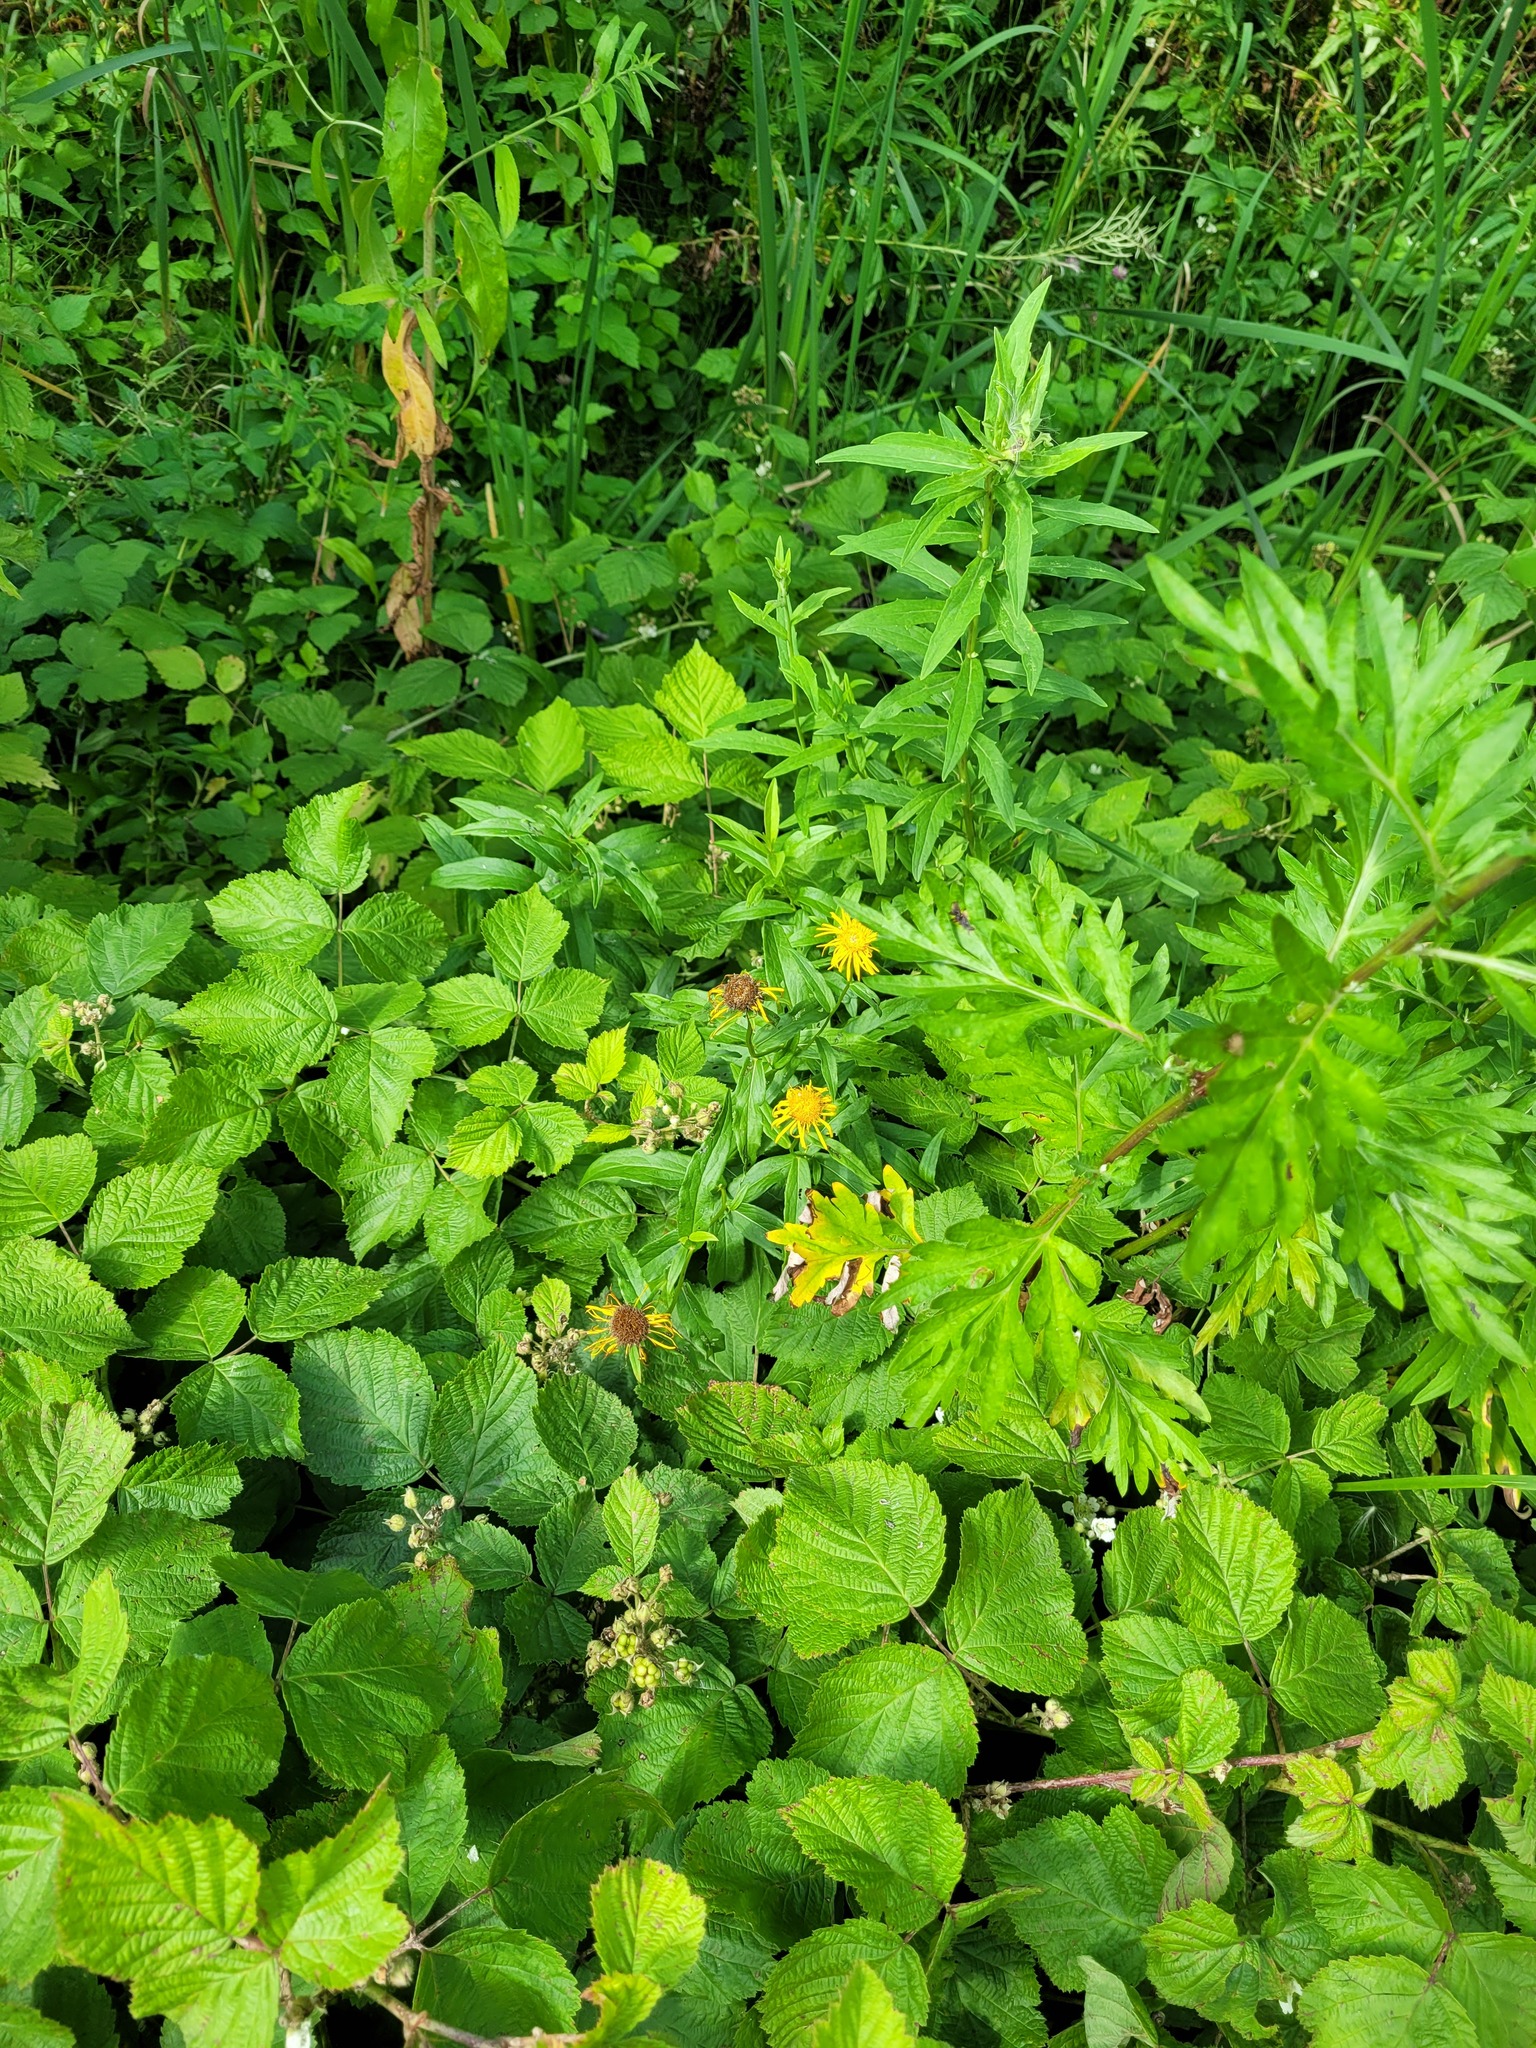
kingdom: Plantae
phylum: Tracheophyta
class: Magnoliopsida
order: Asterales
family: Asteraceae
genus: Pentanema
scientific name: Pentanema salicinum
